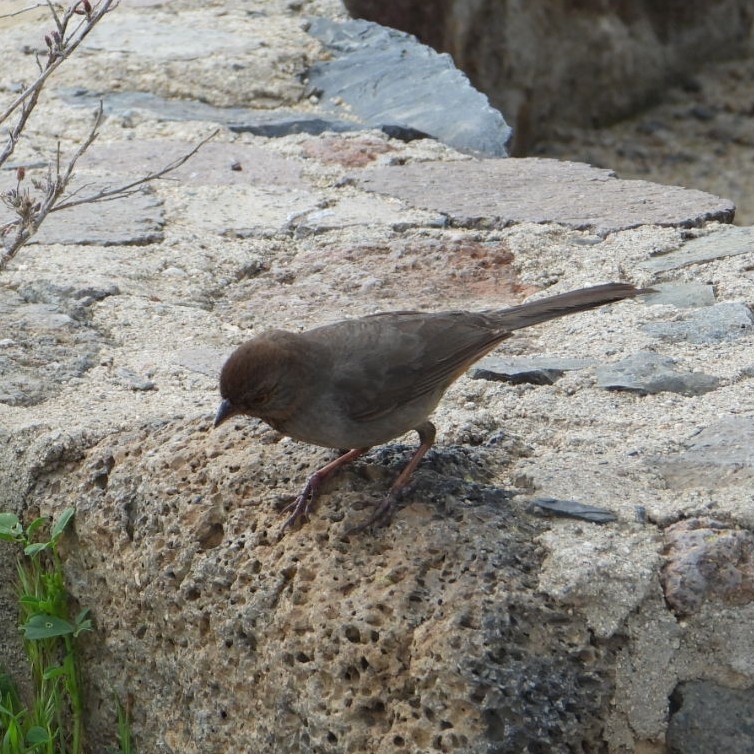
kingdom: Animalia
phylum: Chordata
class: Aves
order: Passeriformes
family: Passerellidae
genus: Melozone
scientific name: Melozone crissalis
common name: California towhee
